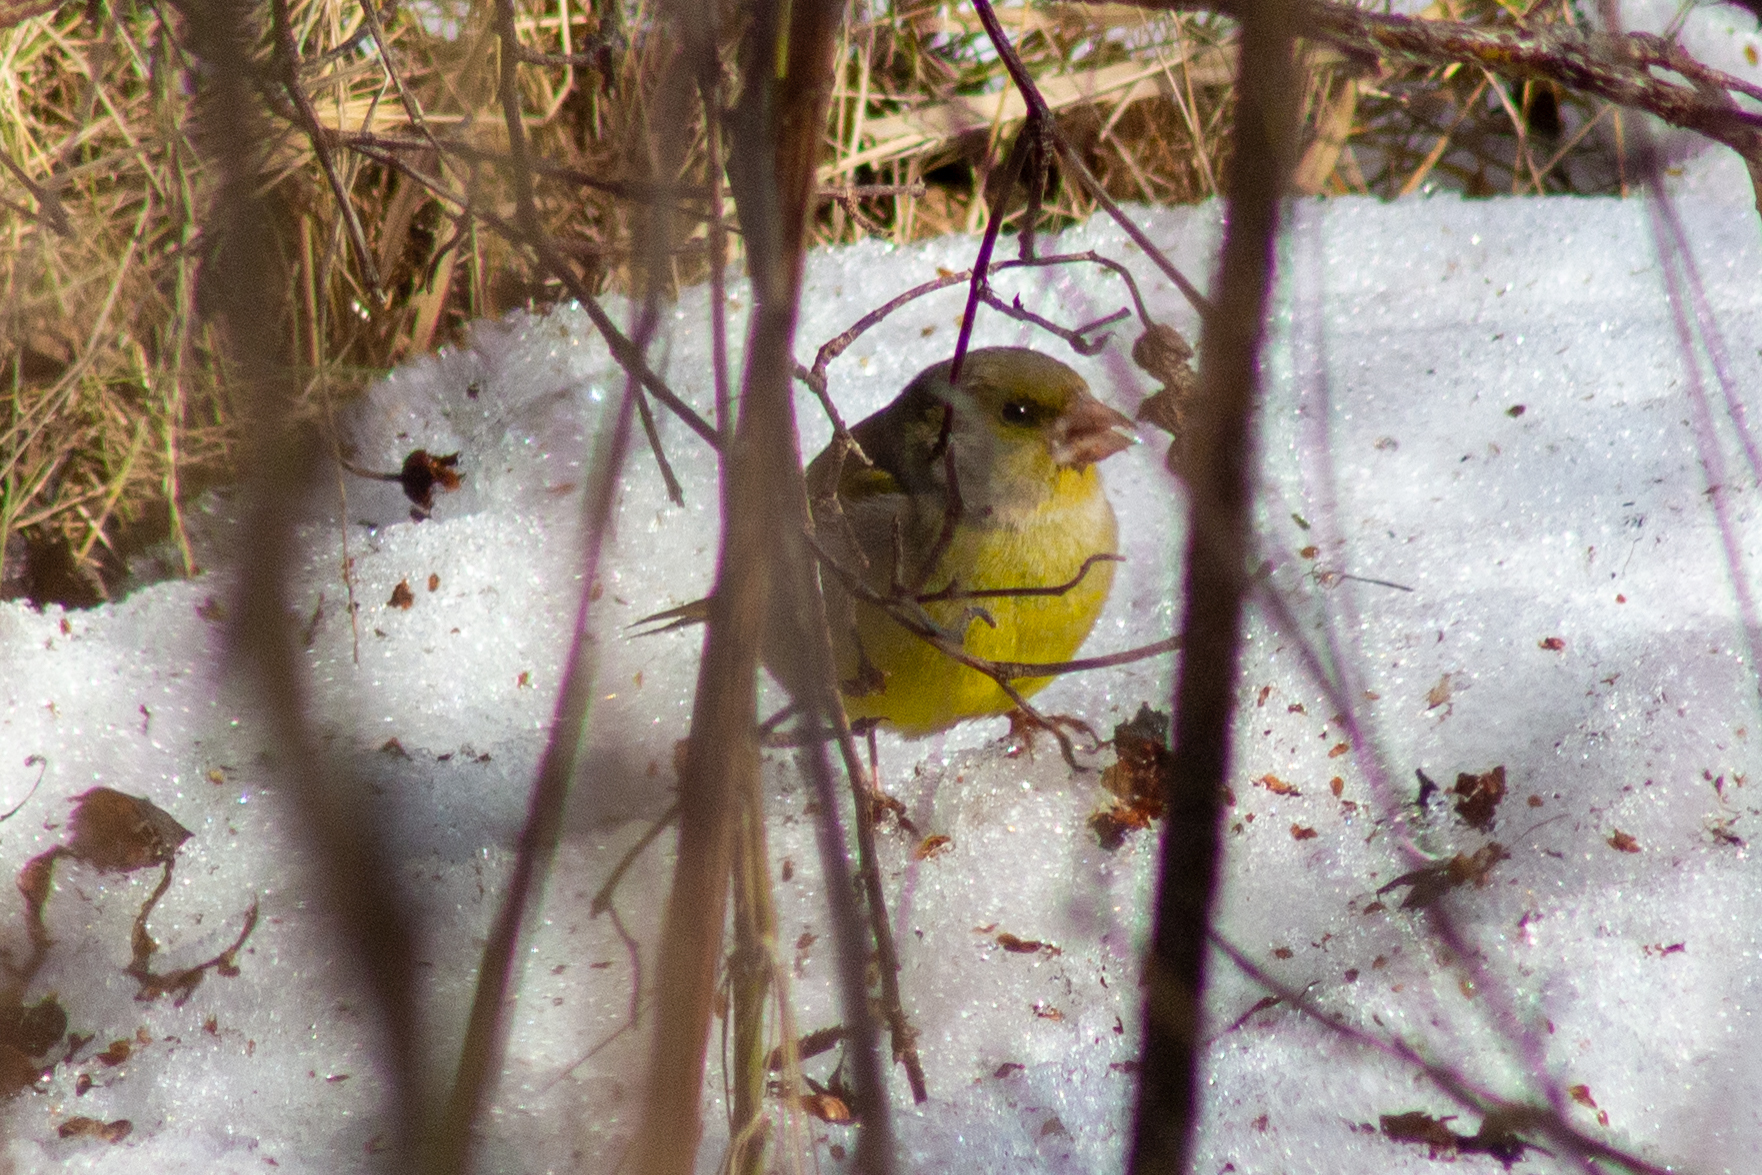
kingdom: Plantae
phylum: Tracheophyta
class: Liliopsida
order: Poales
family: Poaceae
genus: Chloris
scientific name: Chloris chloris
